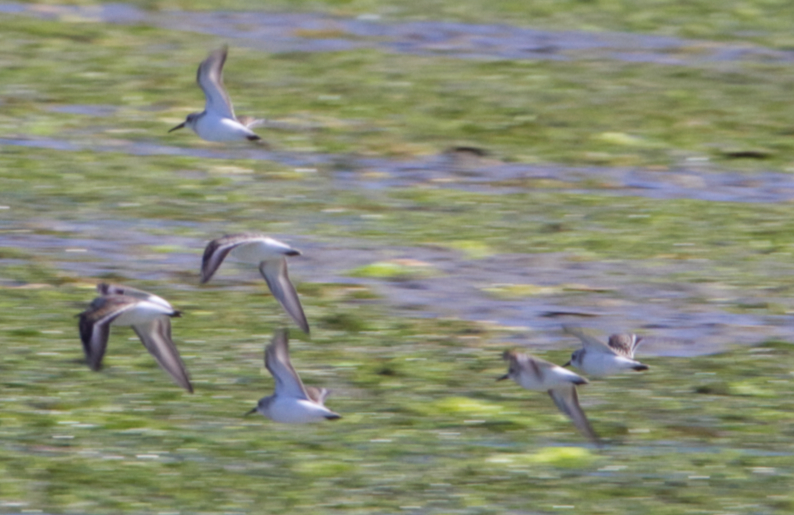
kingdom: Animalia
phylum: Chordata
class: Aves
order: Charadriiformes
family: Scolopacidae
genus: Calidris
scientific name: Calidris mauri
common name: Western sandpiper
